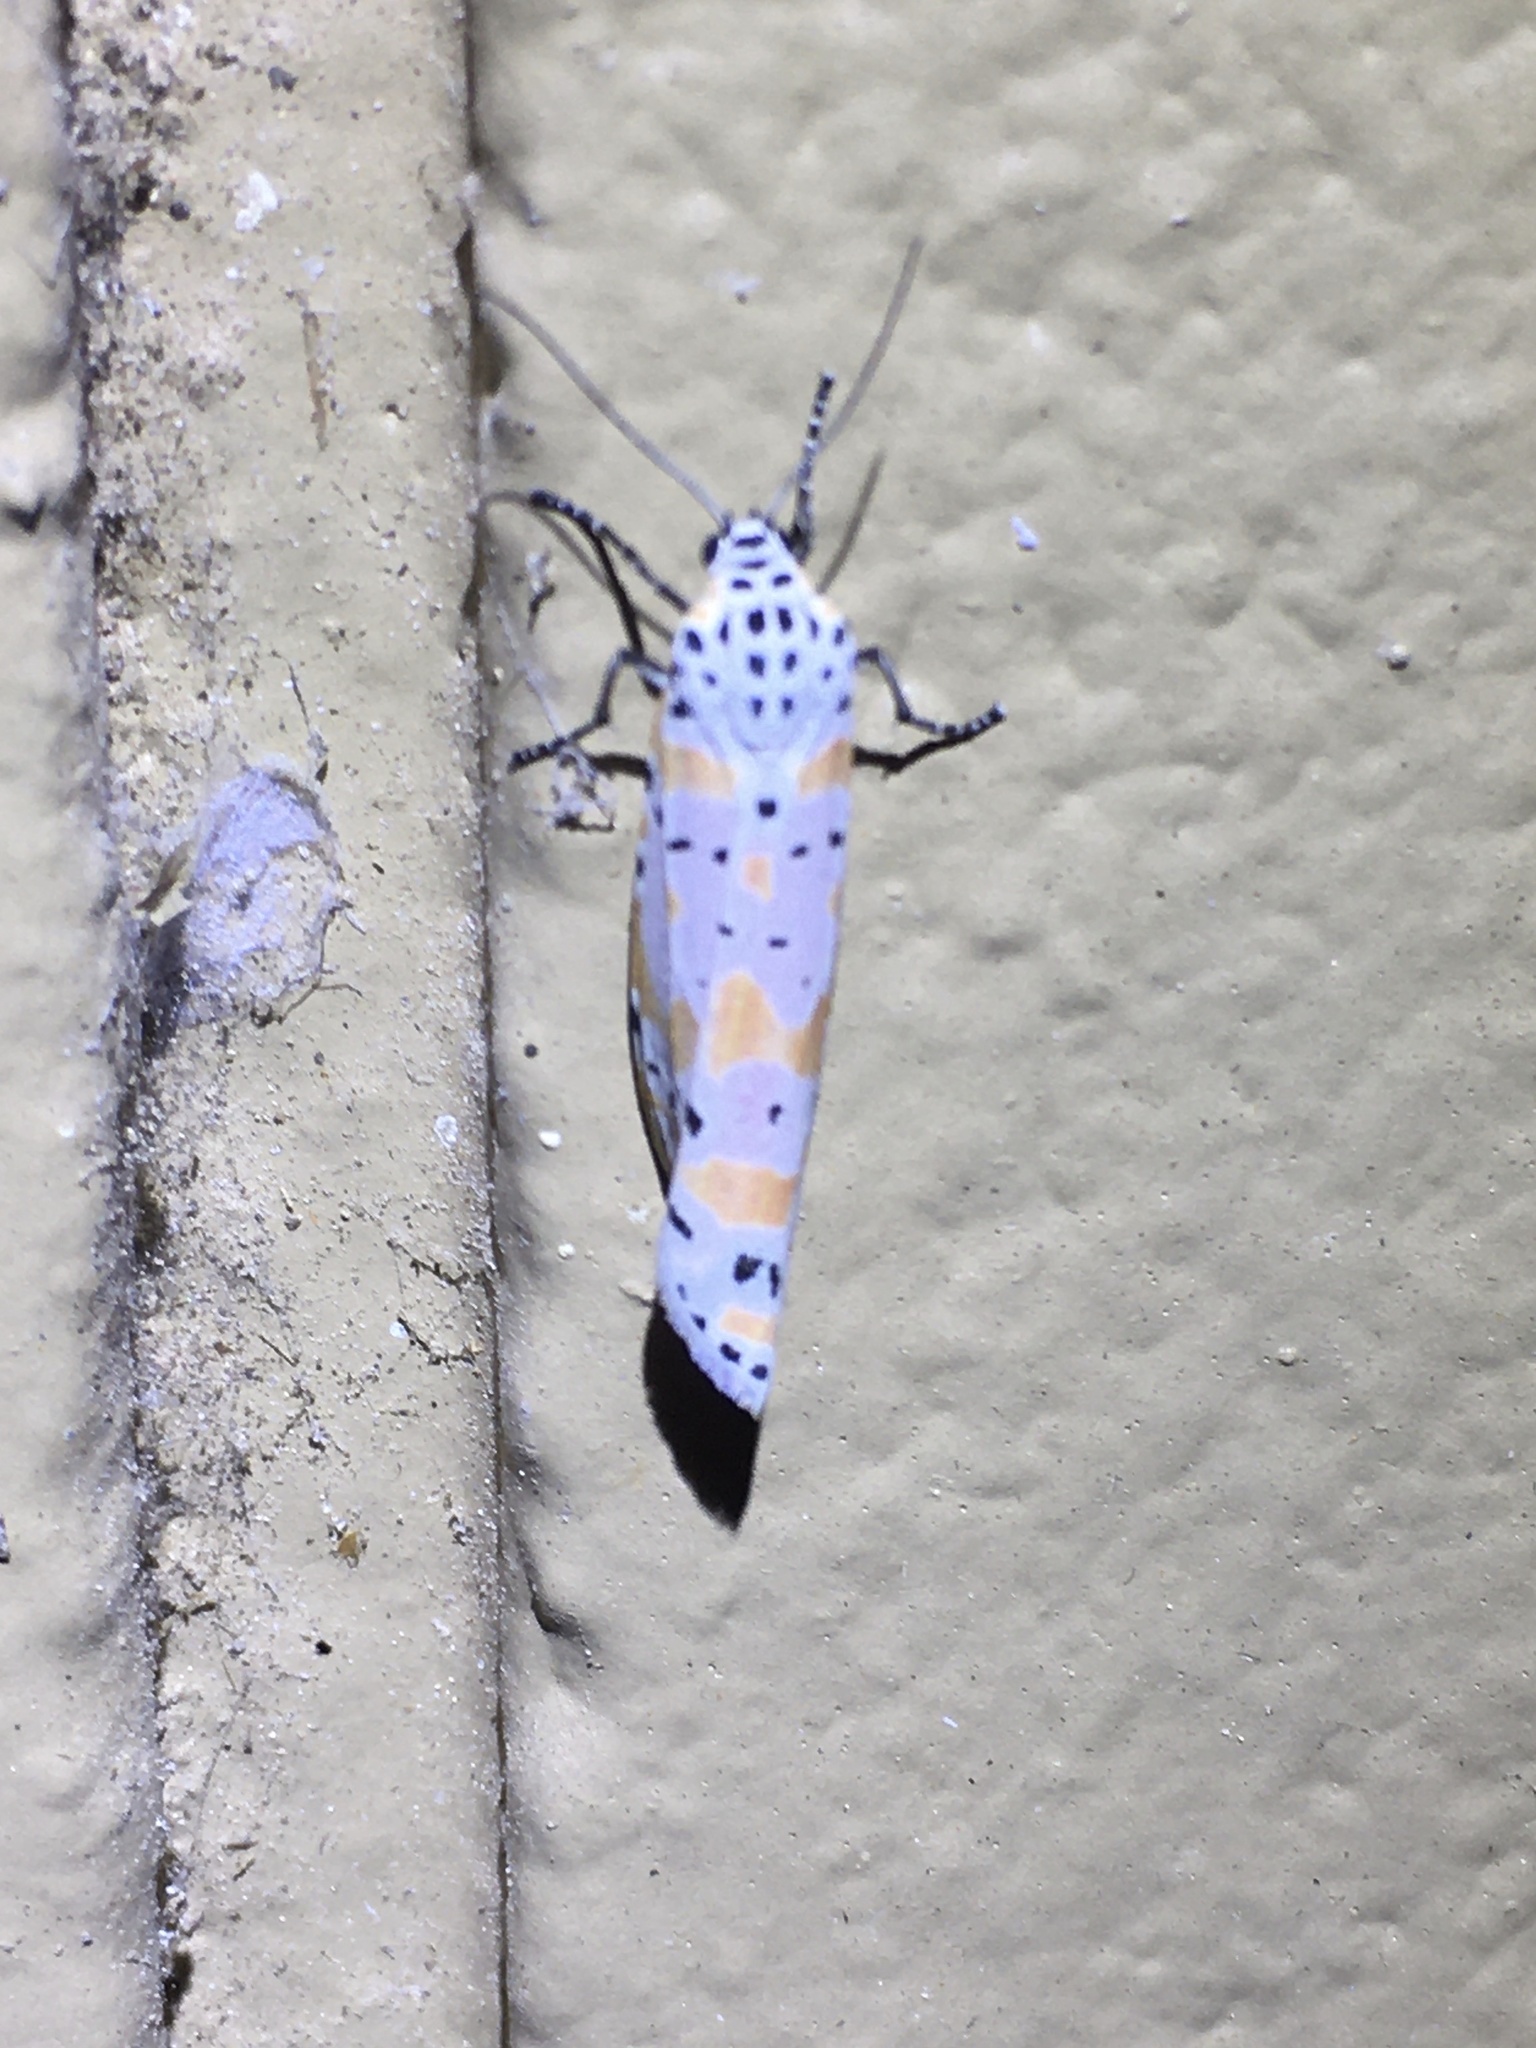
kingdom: Animalia
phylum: Arthropoda
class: Insecta
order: Lepidoptera
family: Erebidae
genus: Utetheisa
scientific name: Utetheisa ornatrix
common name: Beautiful utetheisa
